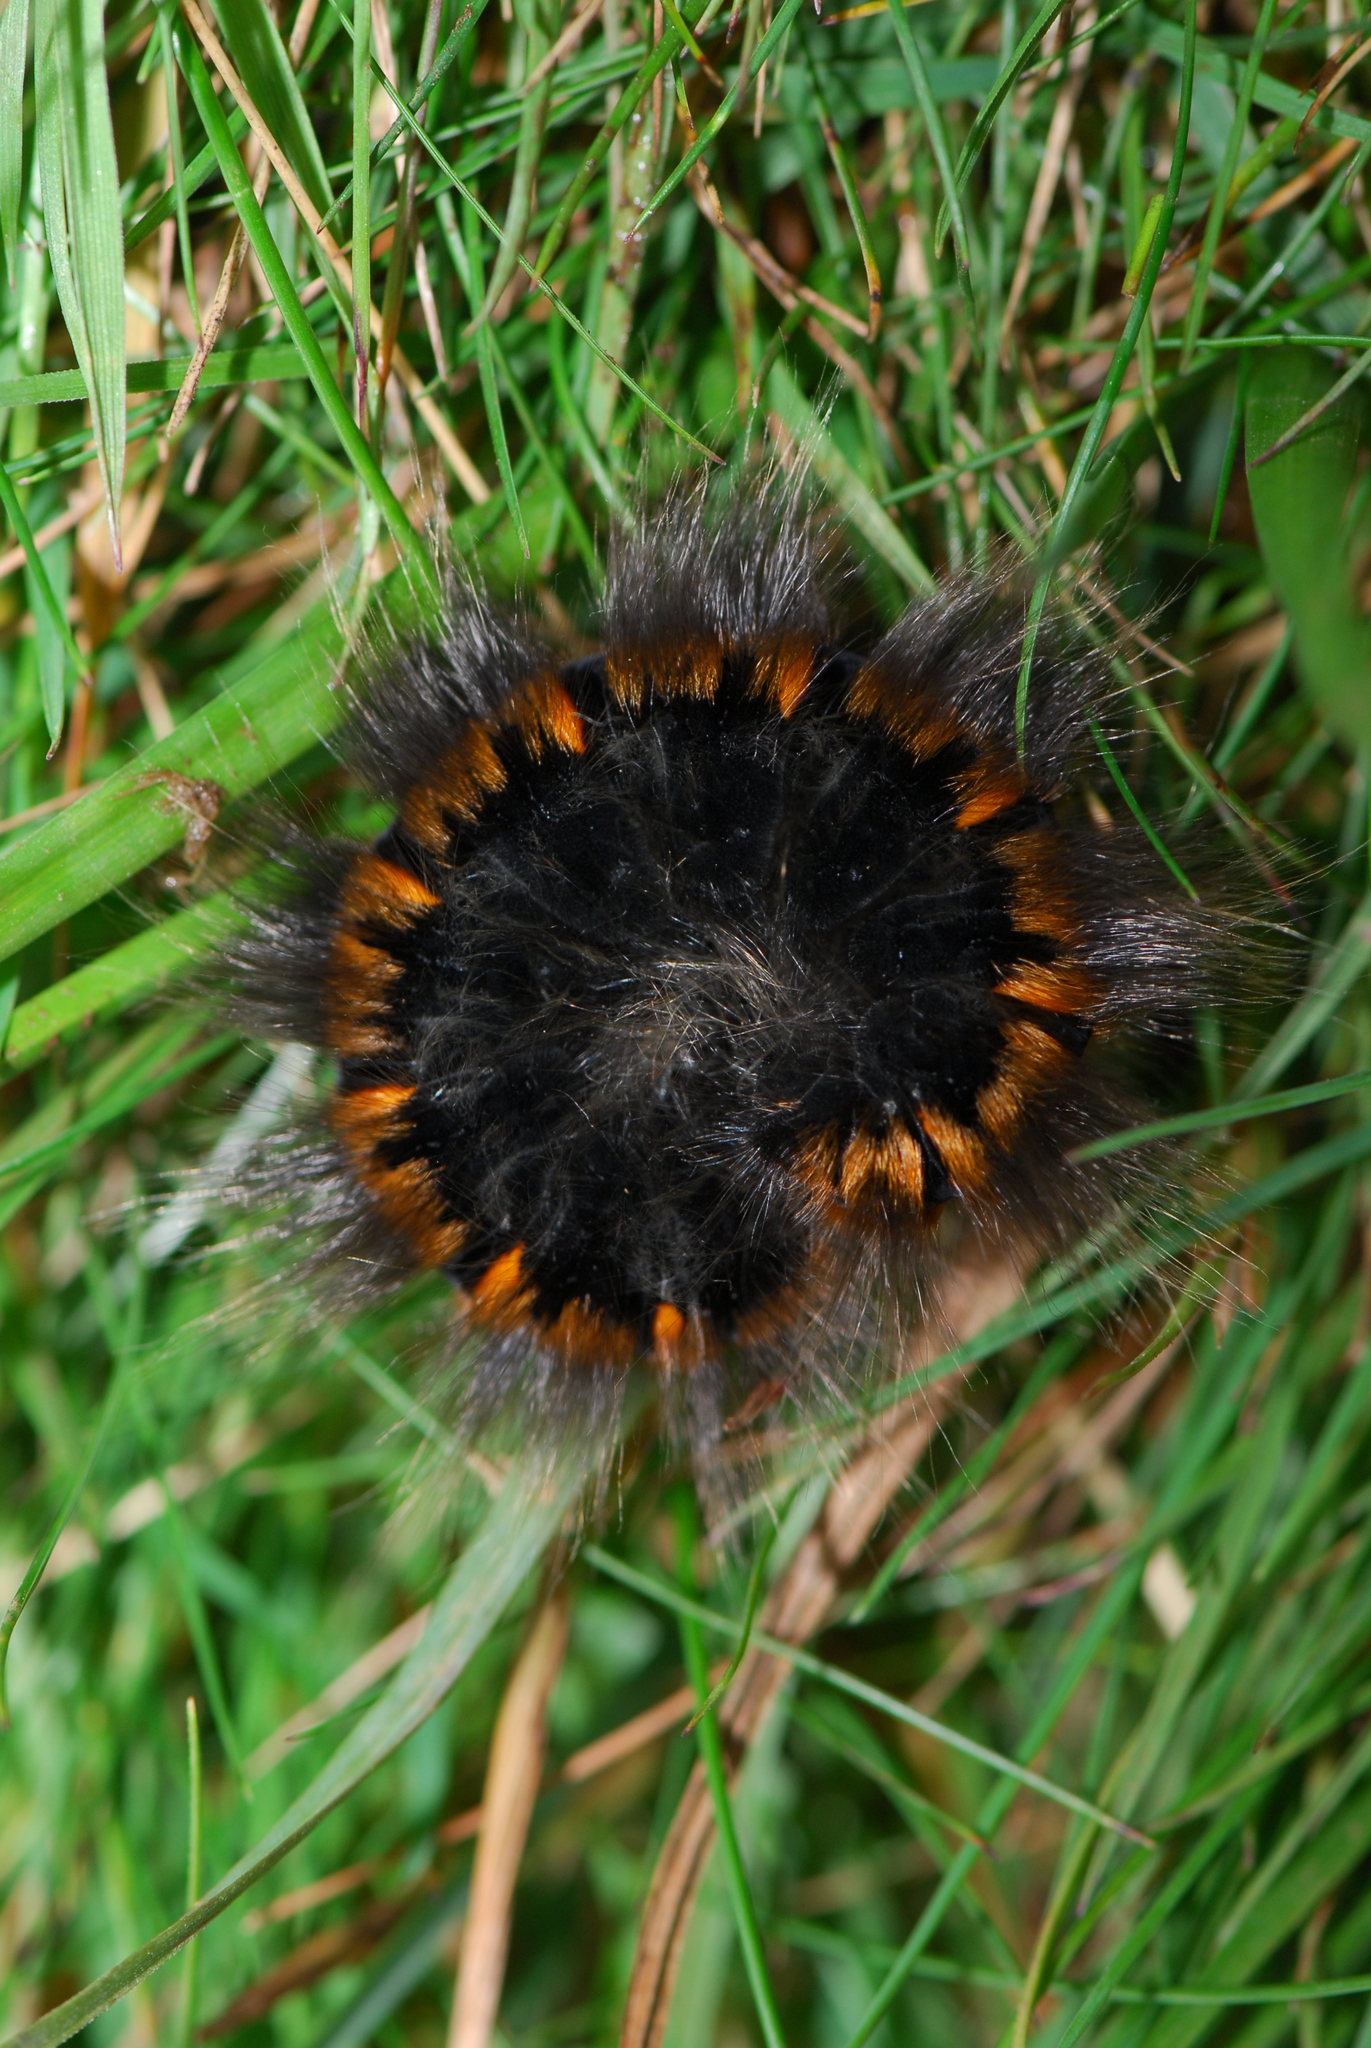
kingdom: Animalia
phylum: Arthropoda
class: Insecta
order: Lepidoptera
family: Lasiocampidae
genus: Macrothylacia
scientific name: Macrothylacia rubi
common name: Fox moth
